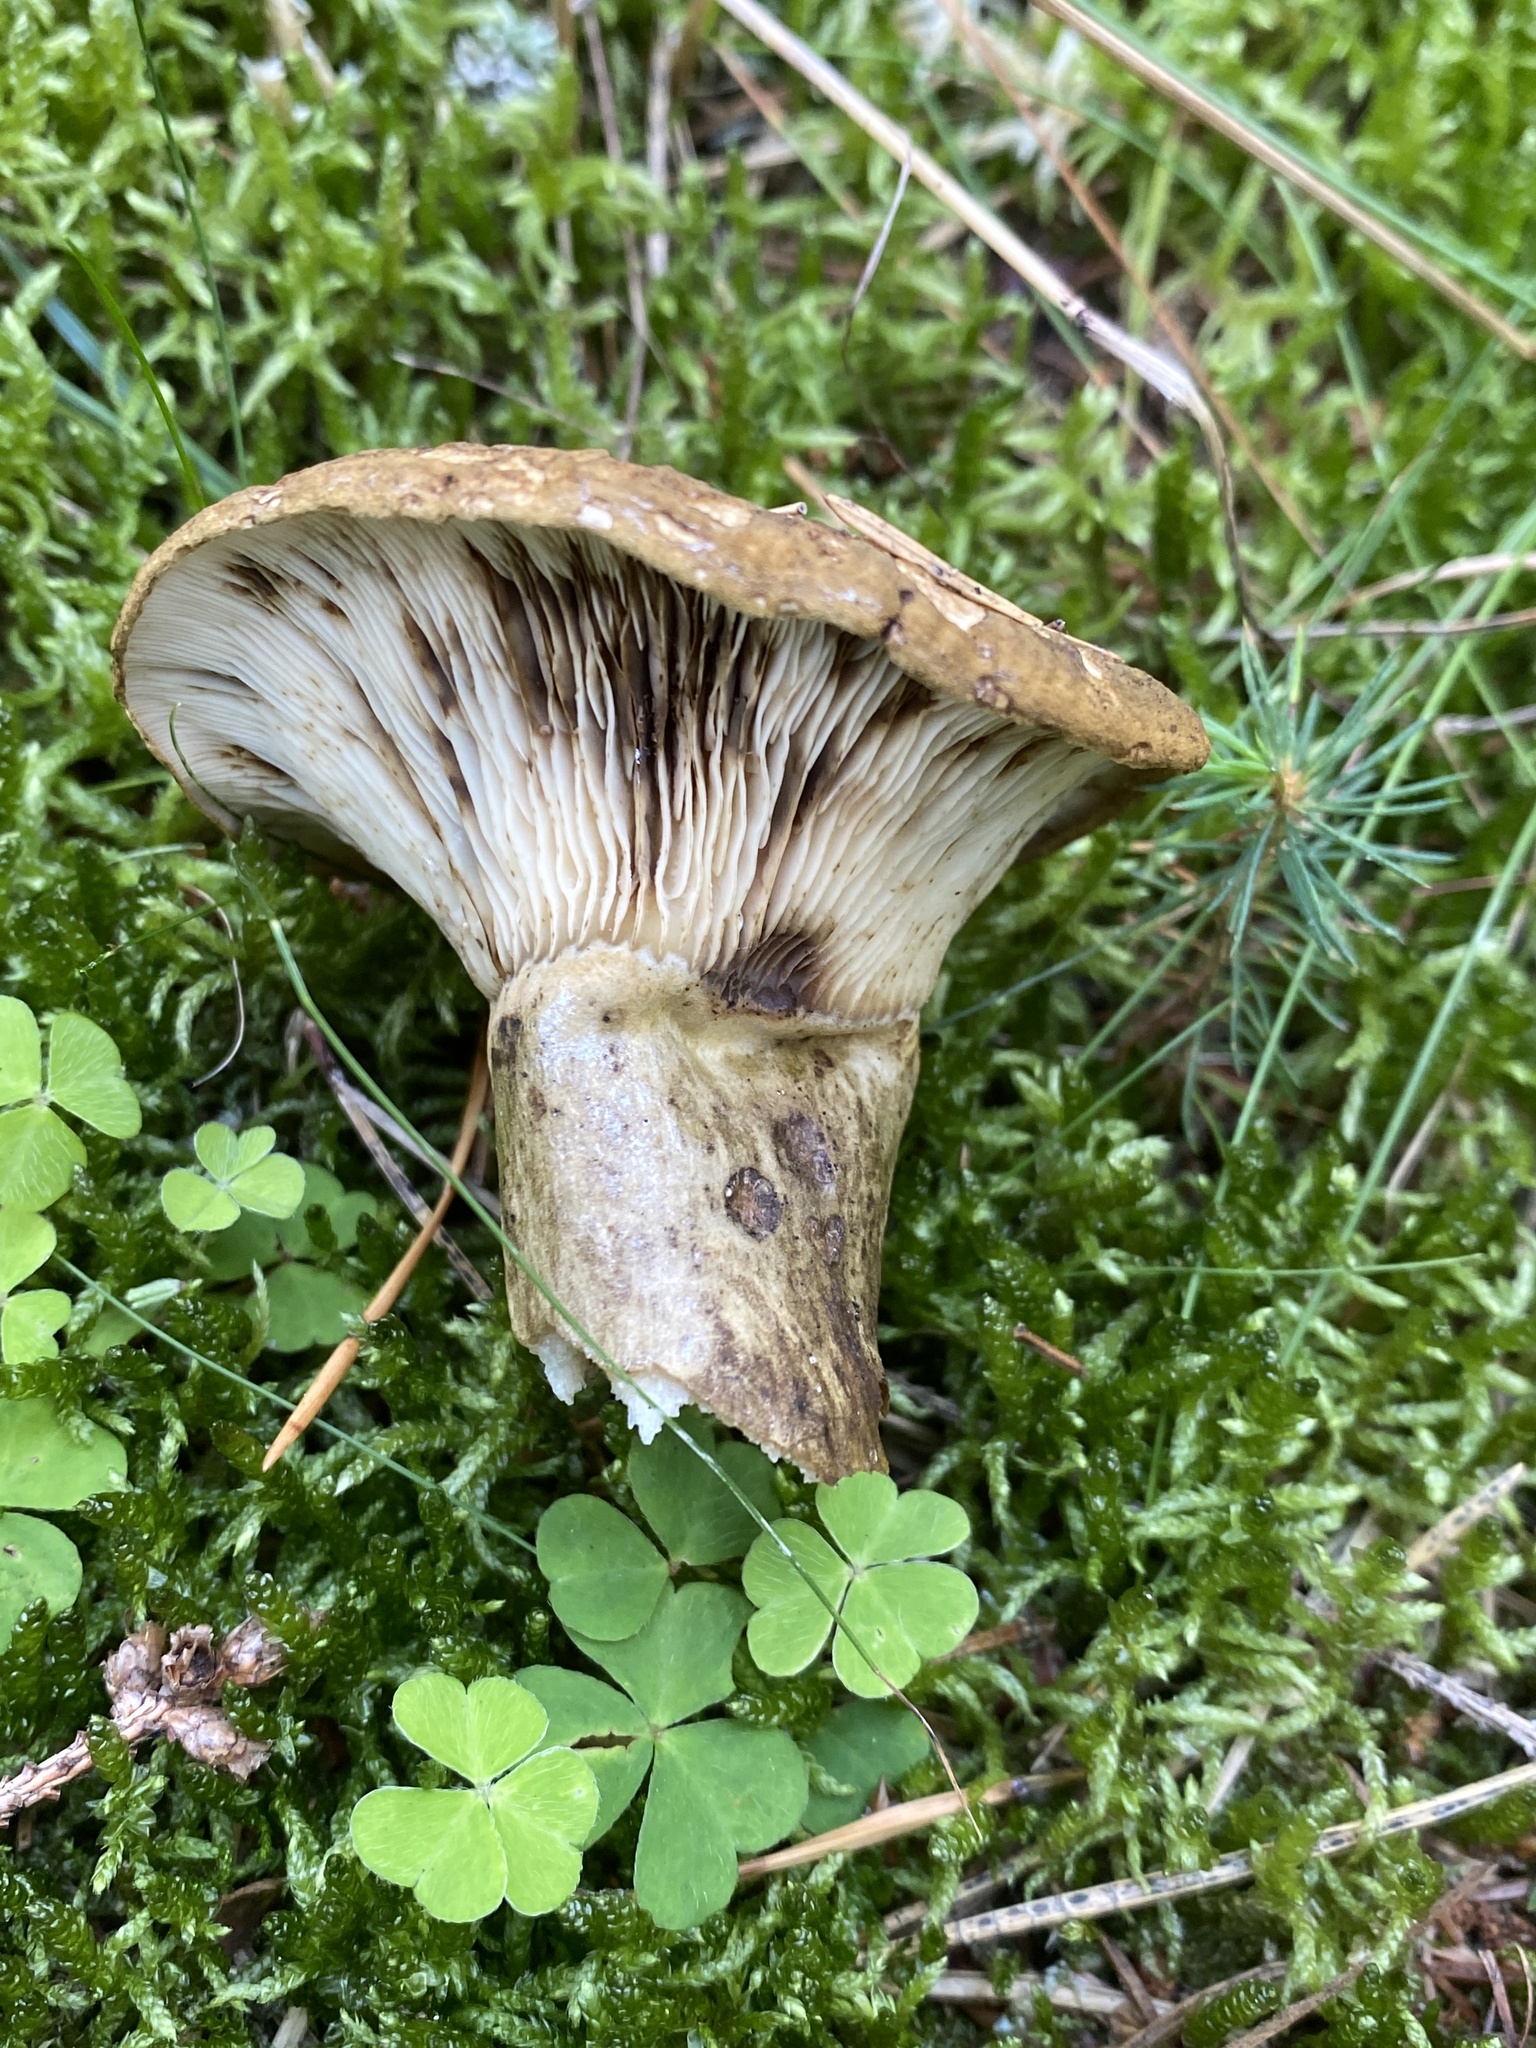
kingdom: Fungi
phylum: Basidiomycota
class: Agaricomycetes
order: Russulales
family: Russulaceae
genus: Lactarius
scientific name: Lactarius turpis
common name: Ugly milk-cap
